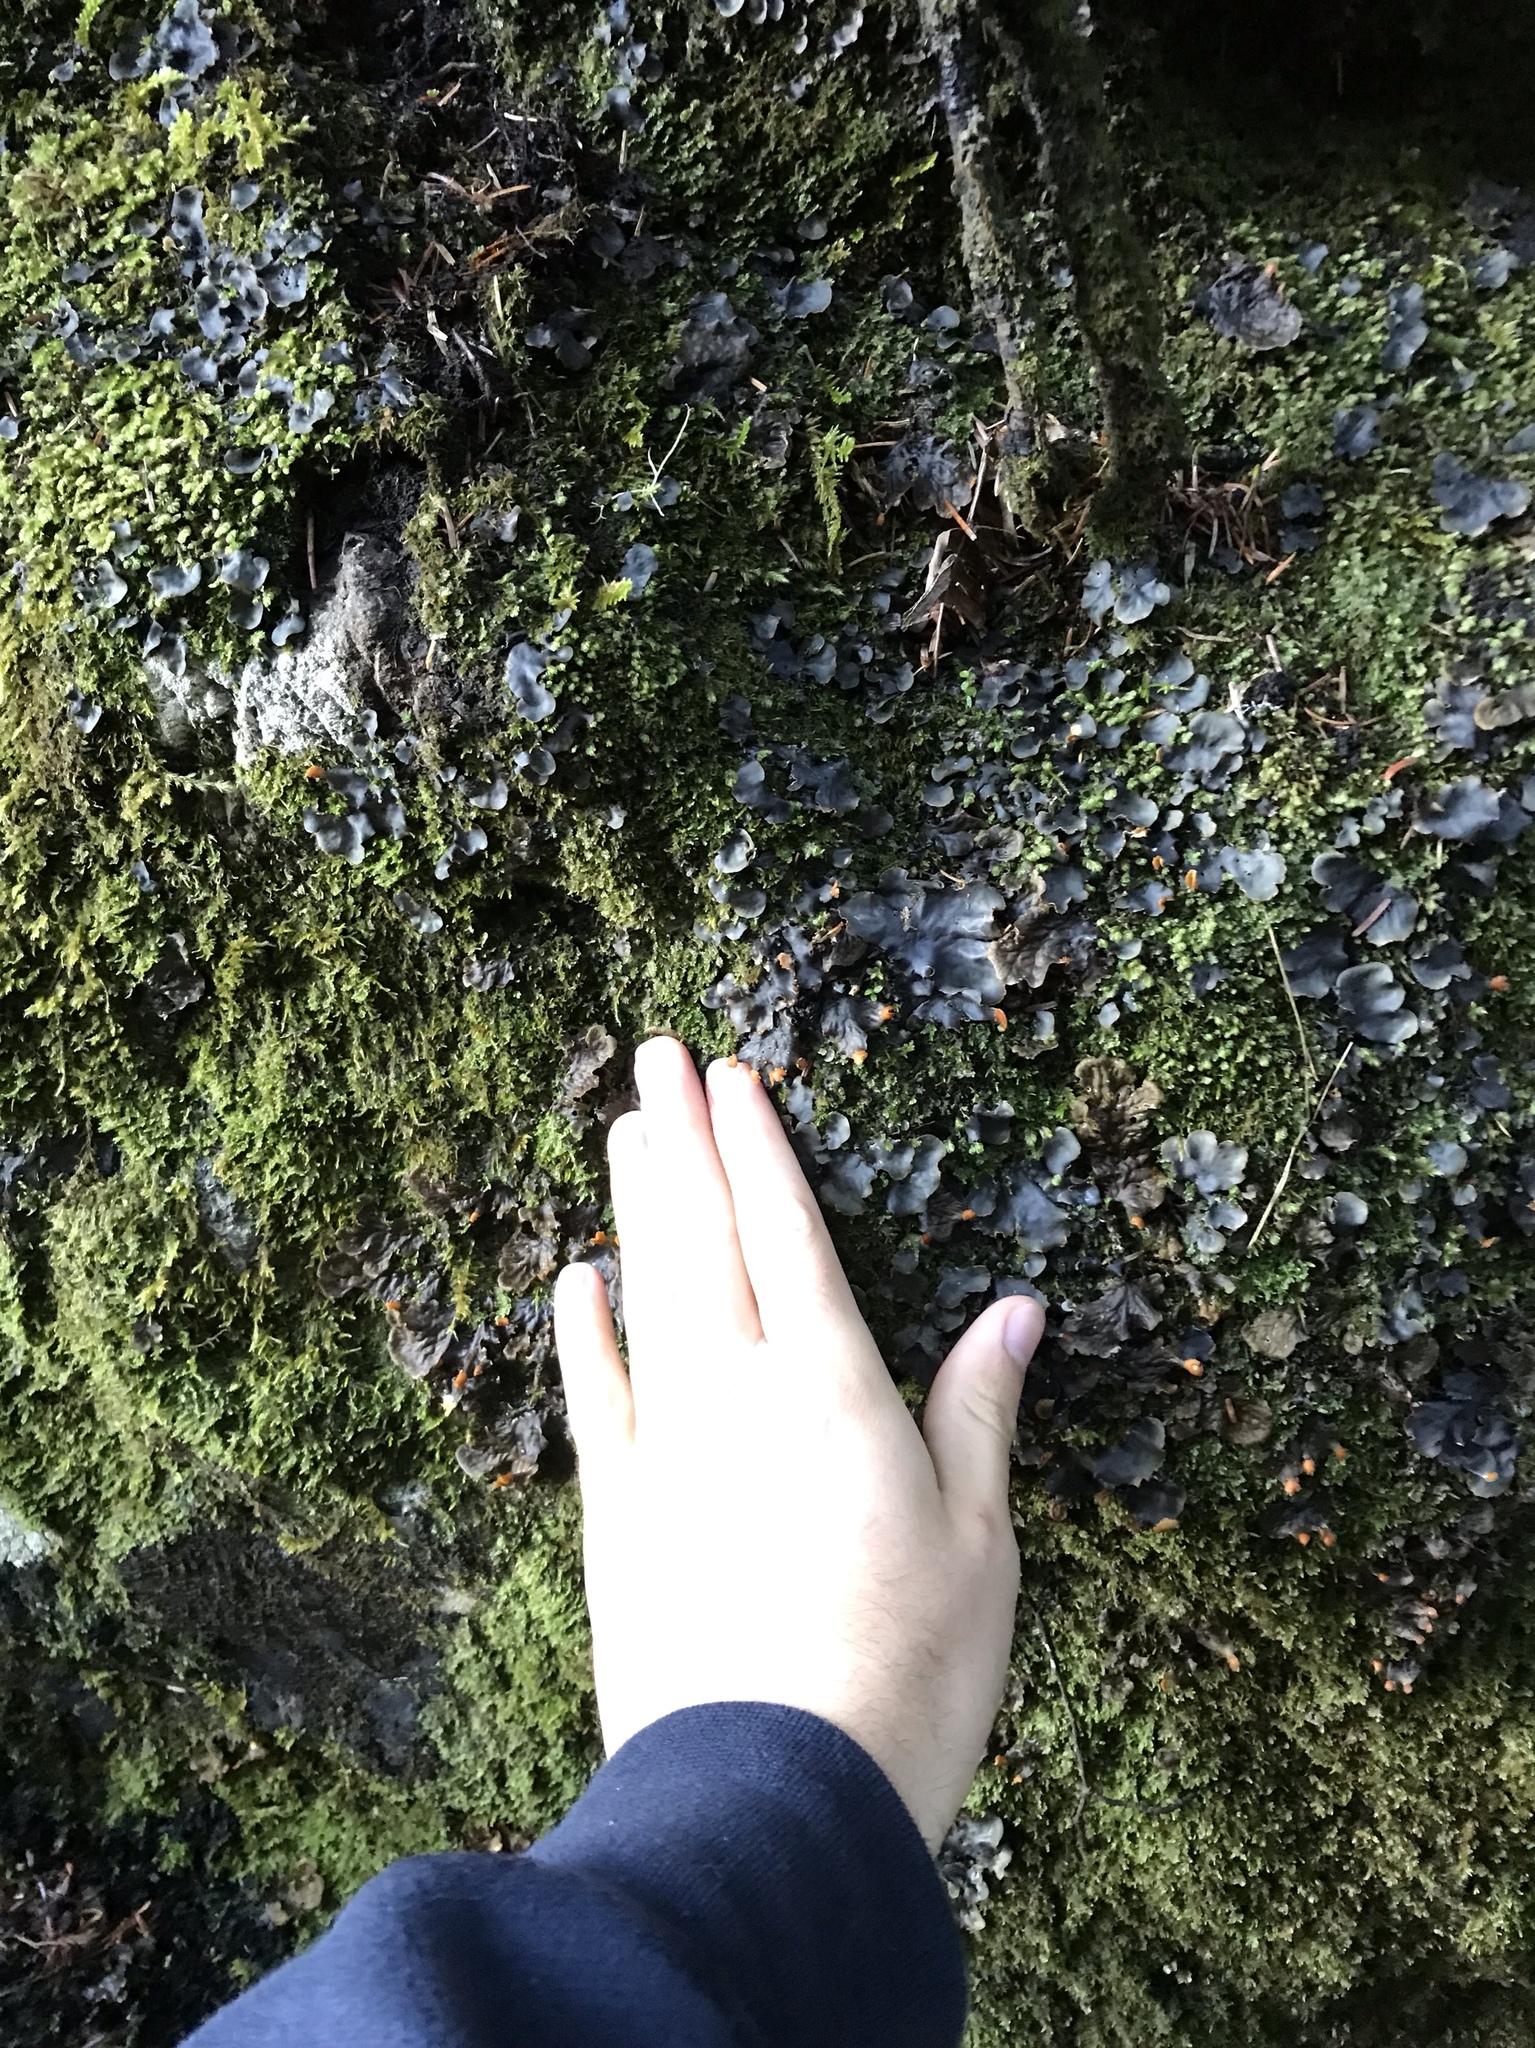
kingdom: Fungi
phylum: Ascomycota
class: Lecanoromycetes
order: Peltigerales
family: Peltigeraceae
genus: Peltigera
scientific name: Peltigera membranacea
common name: Membranous pelt lichen
